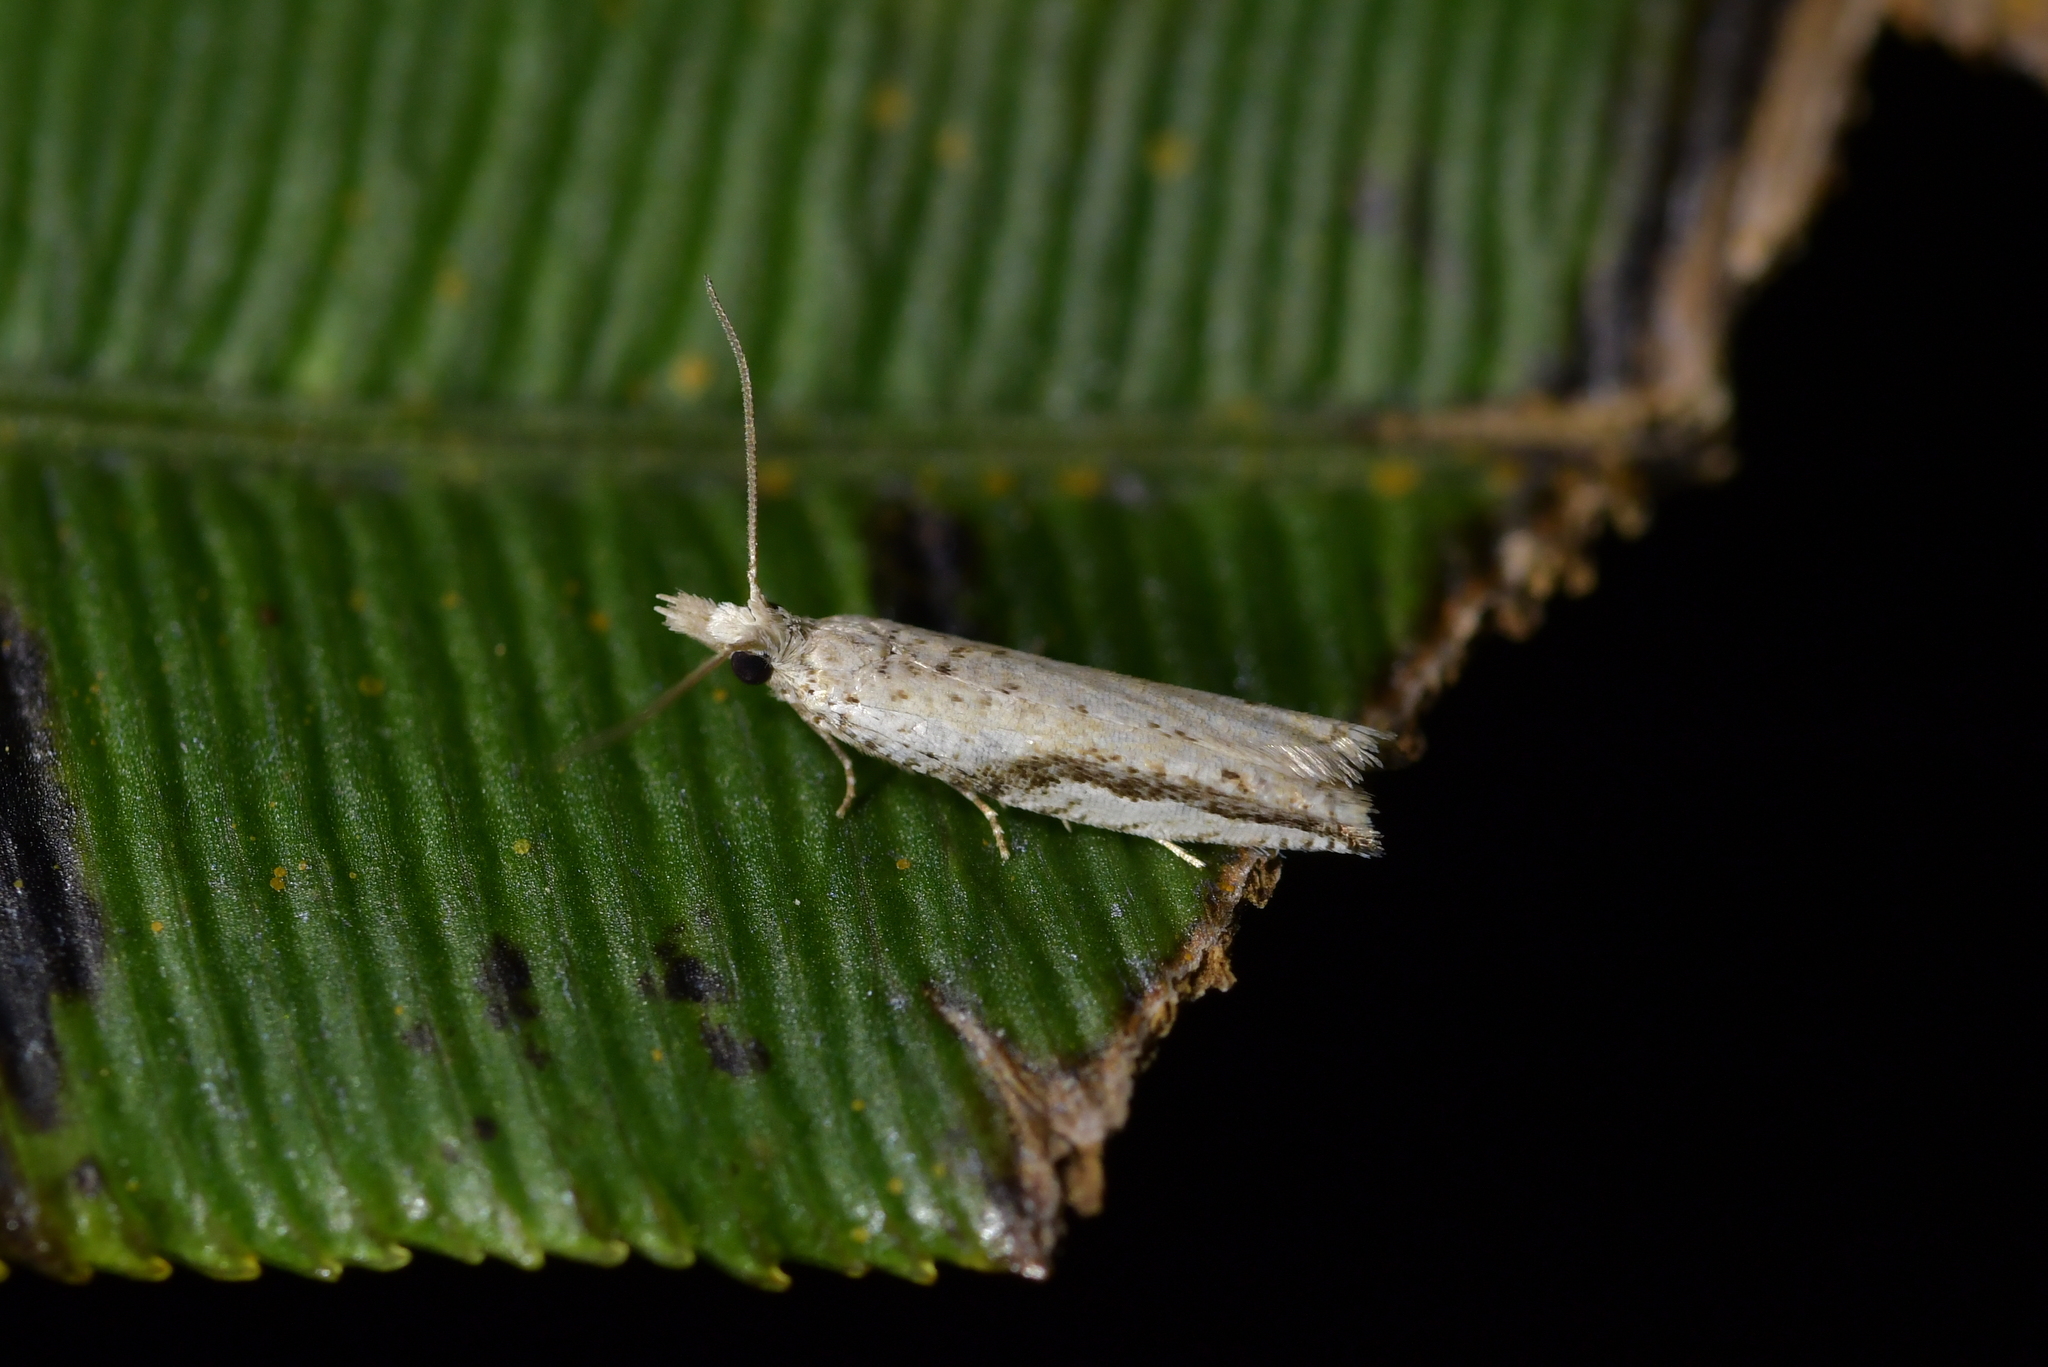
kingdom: Animalia
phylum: Arthropoda
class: Insecta
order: Lepidoptera
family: Tortricidae
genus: Holocola
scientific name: Holocola
